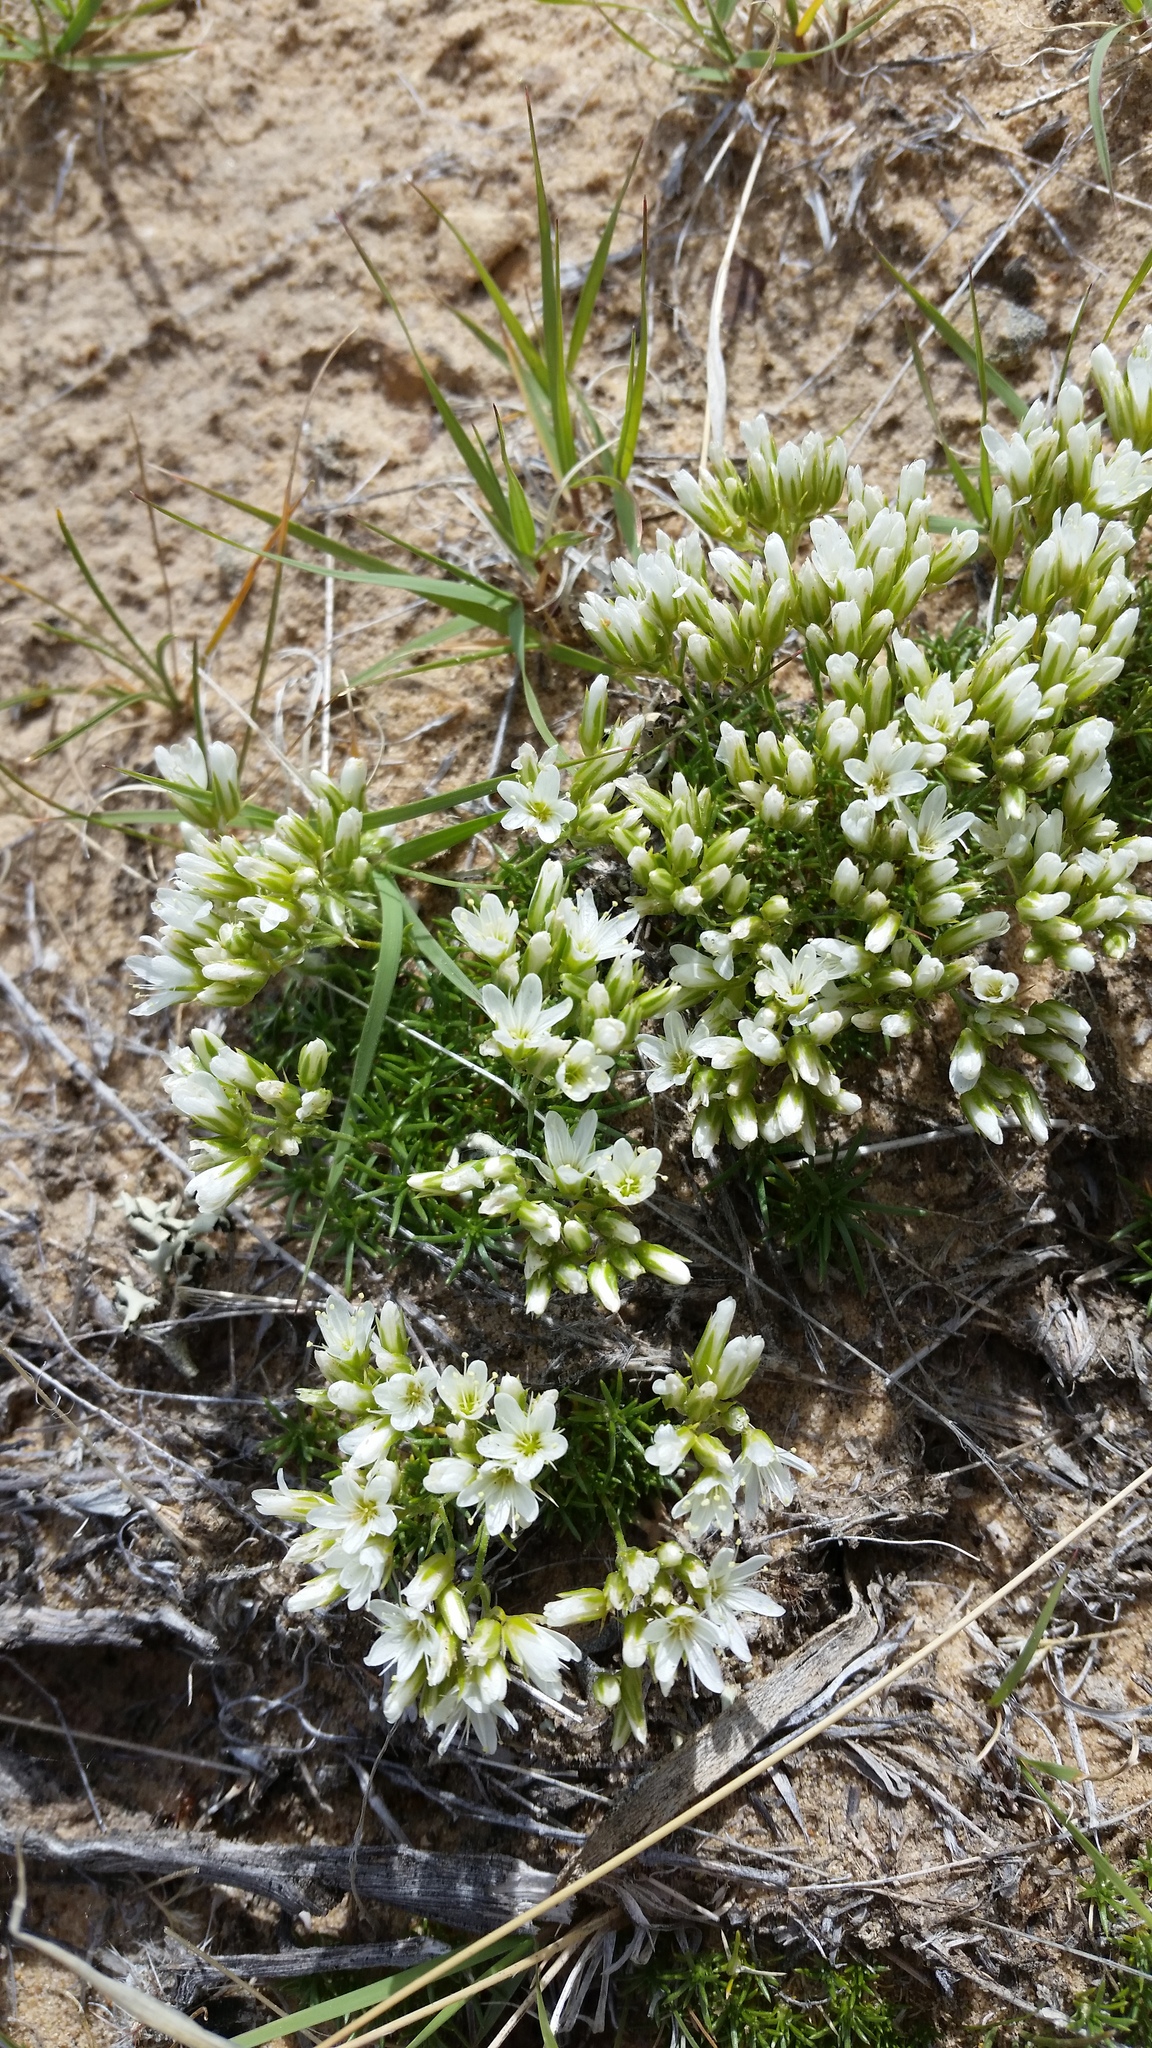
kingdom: Plantae
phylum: Tracheophyta
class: Magnoliopsida
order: Caryophyllales
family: Caryophyllaceae
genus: Eremogone
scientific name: Eremogone hookeri
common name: Hooker's sandwort
